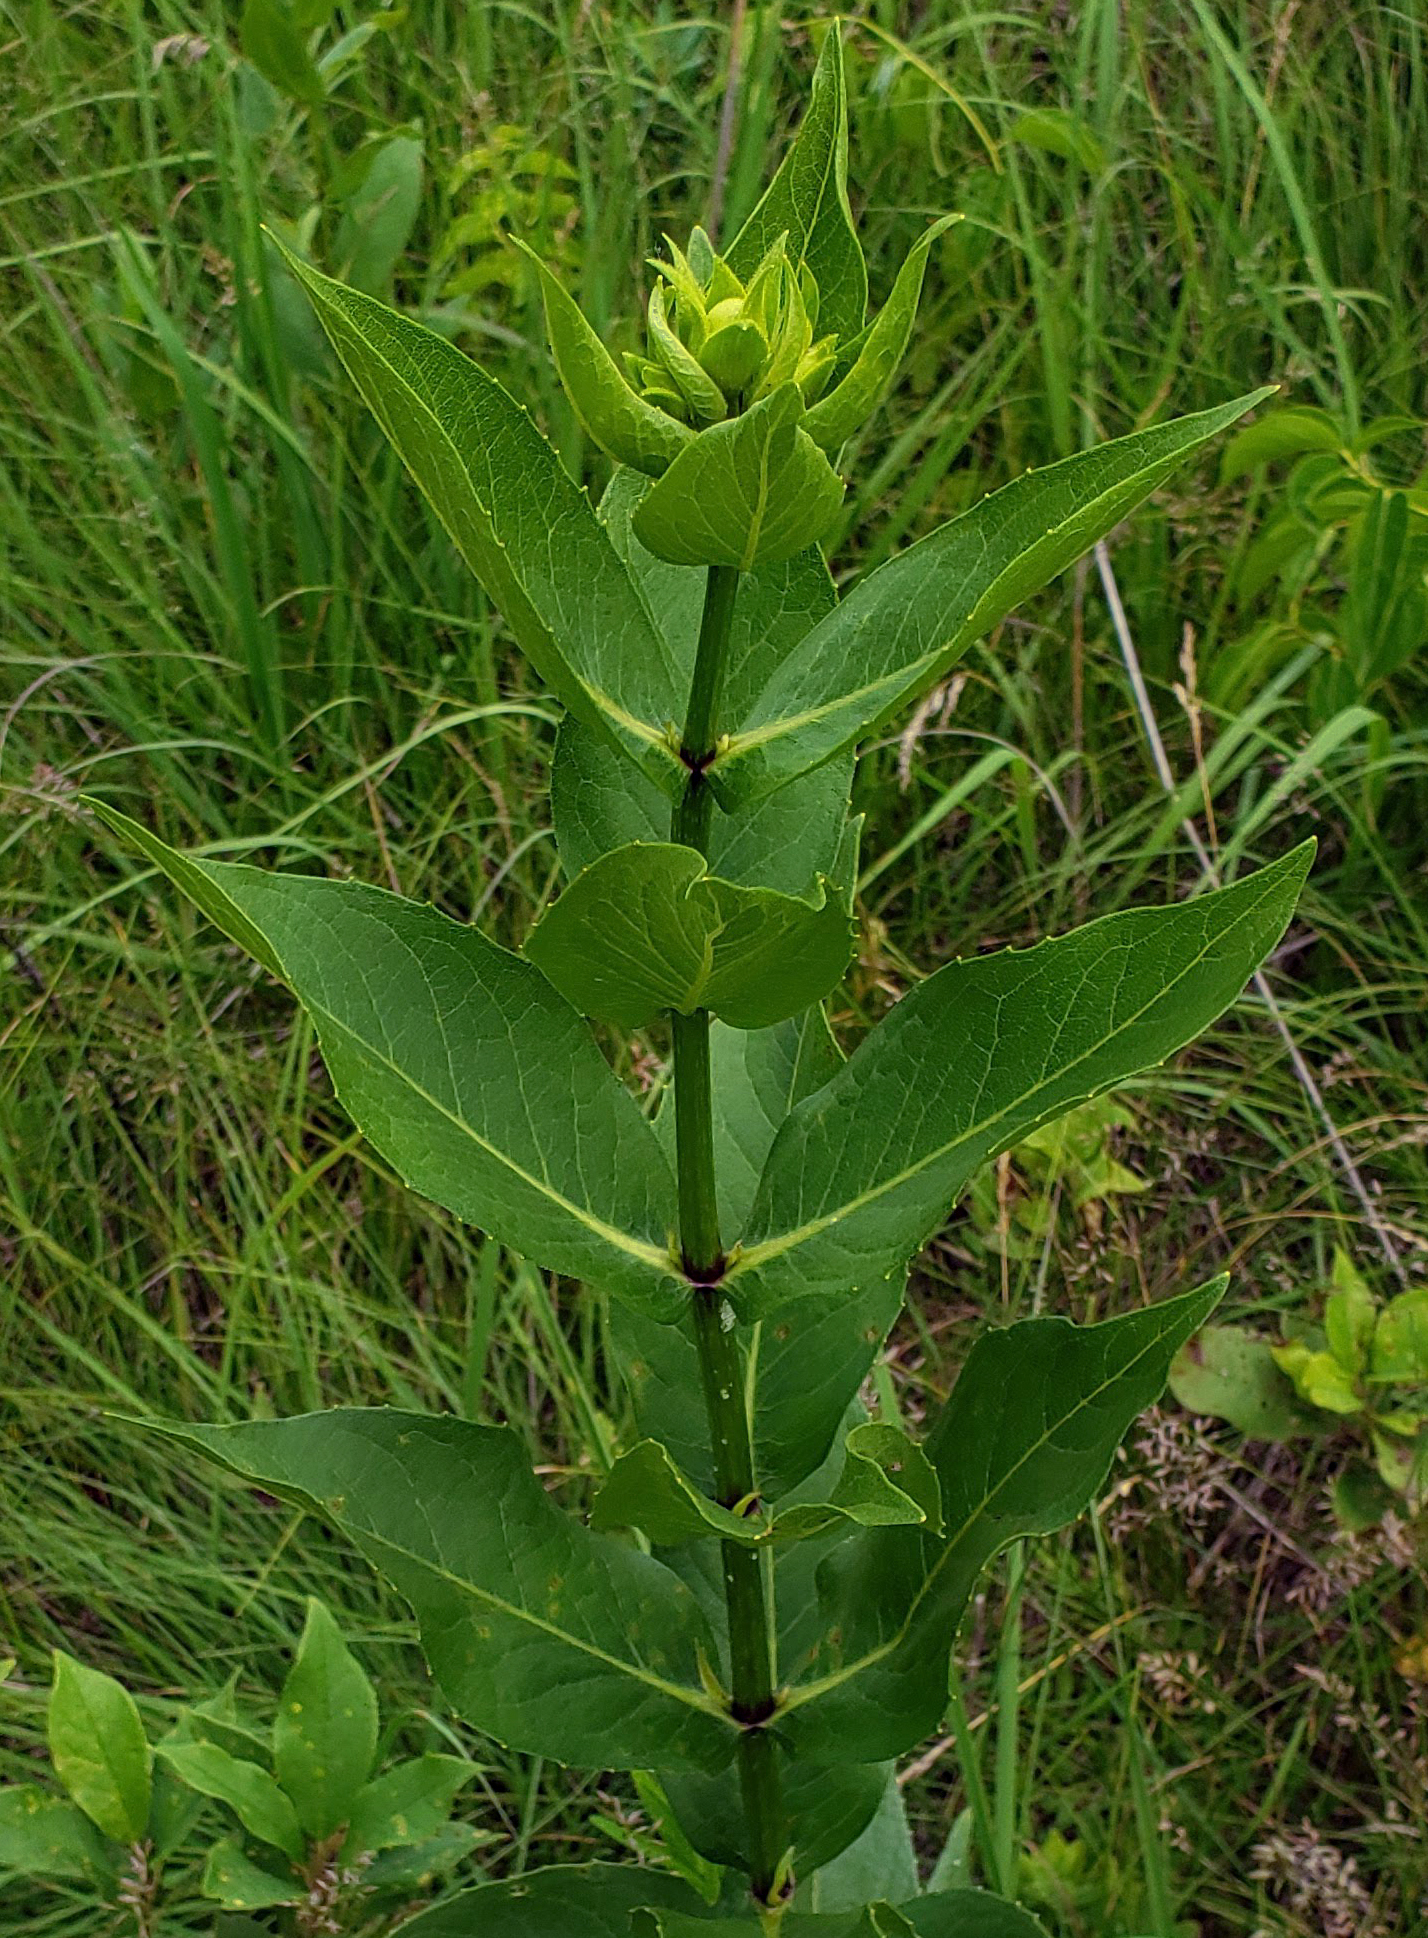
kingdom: Plantae
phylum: Tracheophyta
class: Magnoliopsida
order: Asterales
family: Asteraceae
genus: Silphium
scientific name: Silphium integrifolium
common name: Whole-leaf rosinweed
